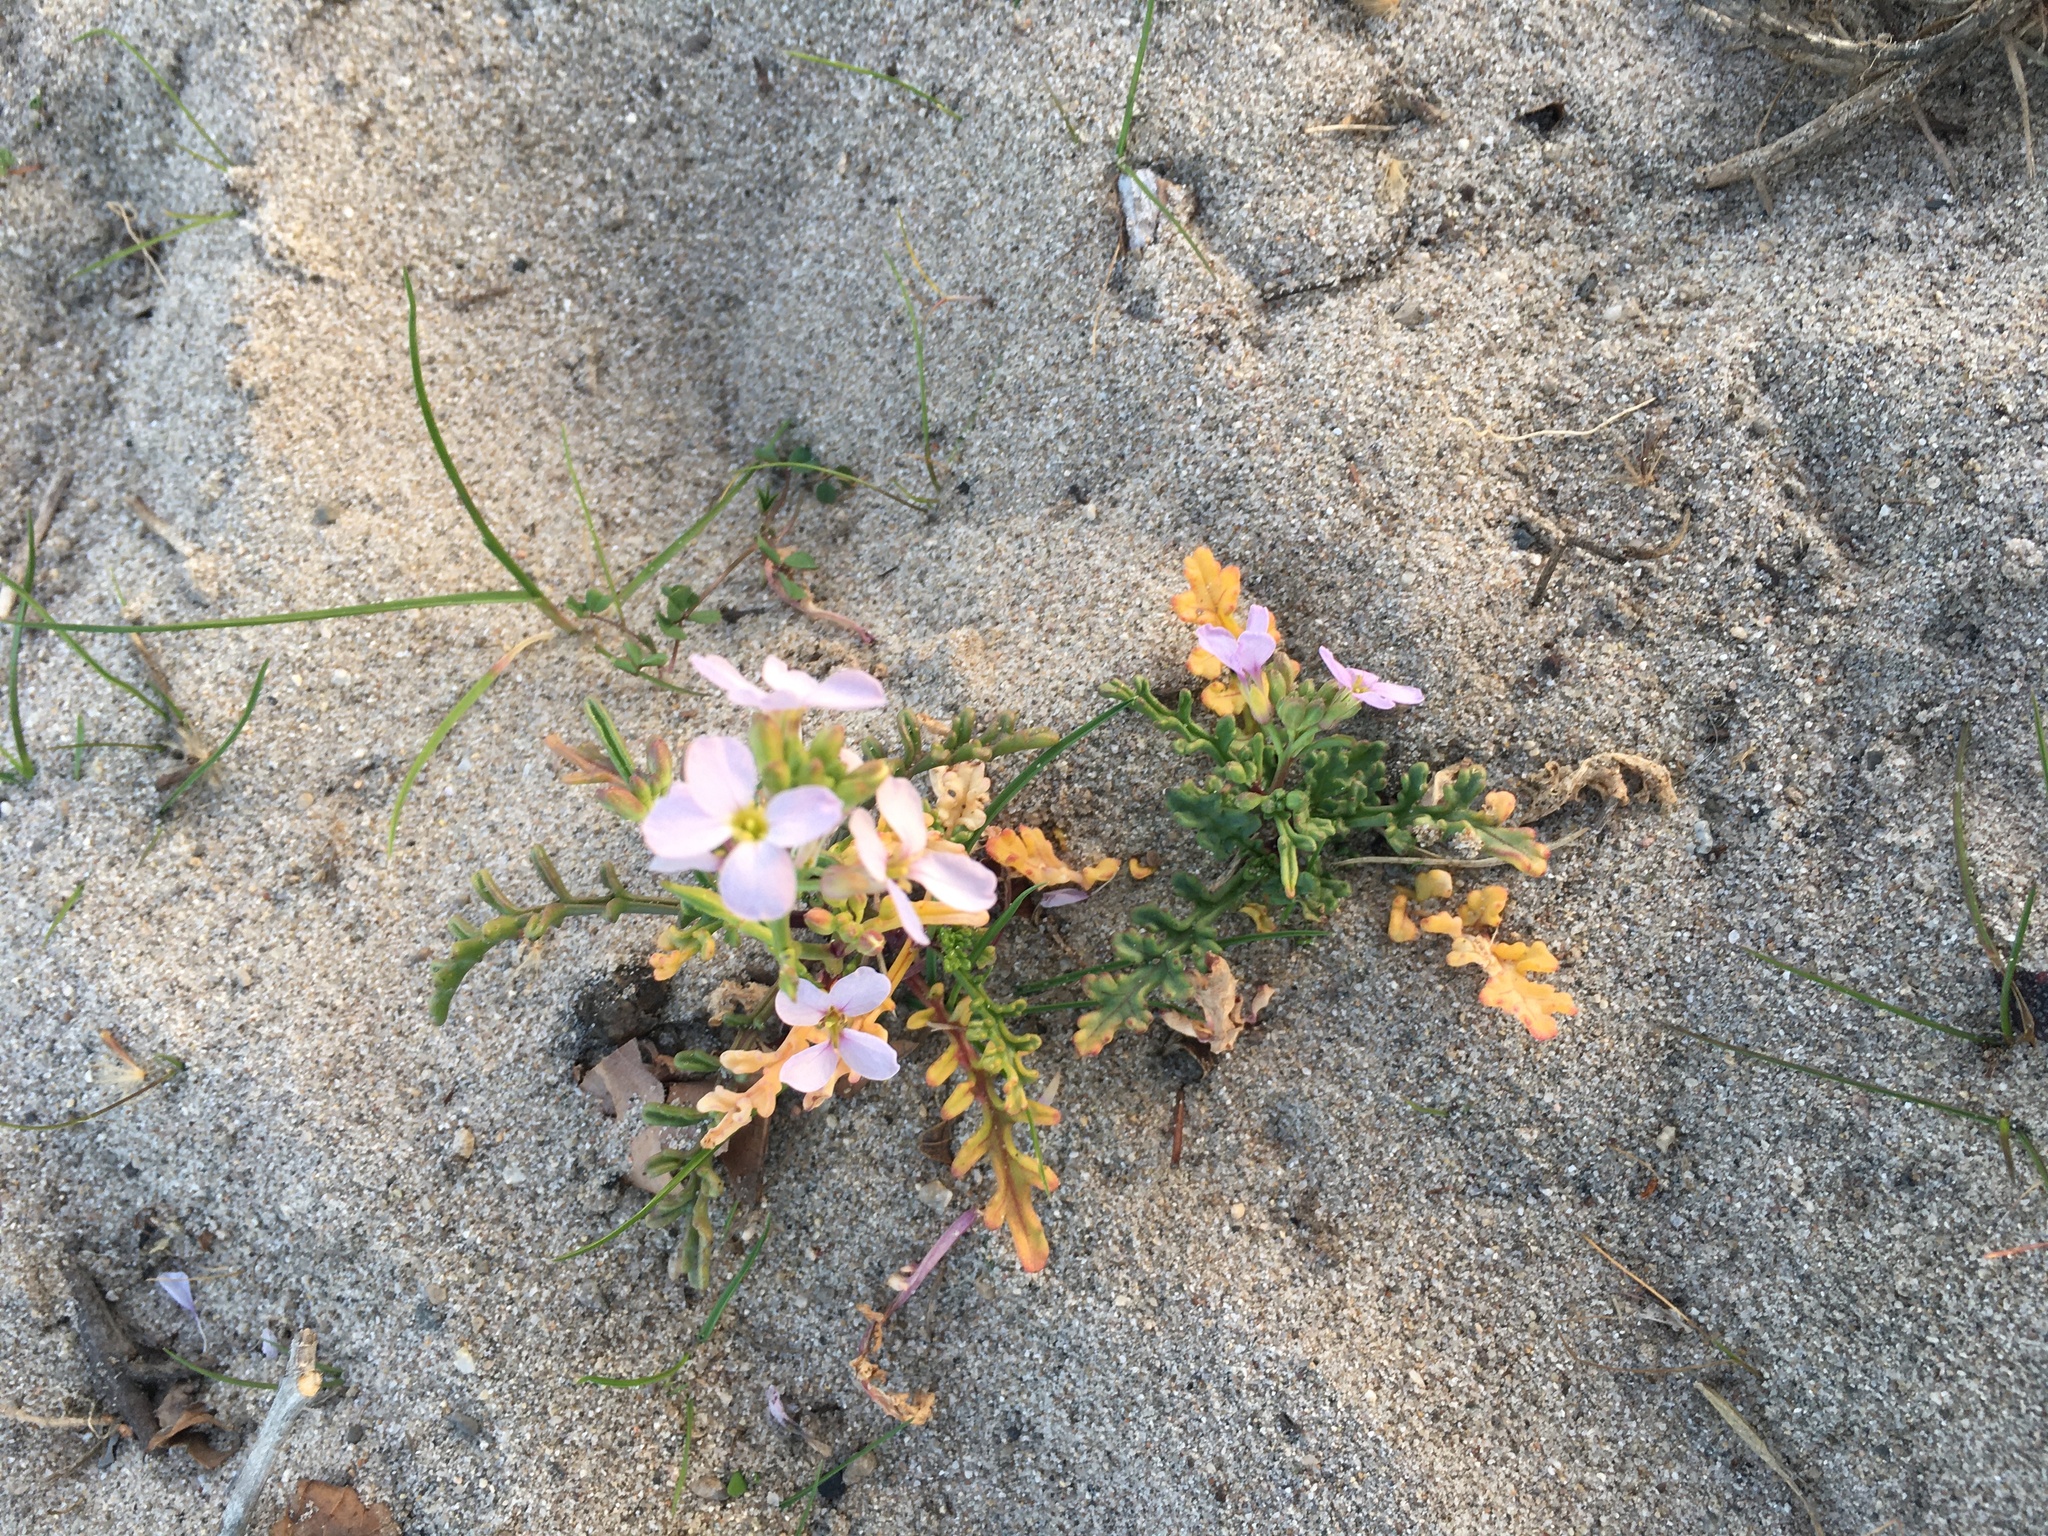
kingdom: Plantae
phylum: Tracheophyta
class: Magnoliopsida
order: Brassicales
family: Brassicaceae
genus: Cakile
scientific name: Cakile maritima
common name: Sea rocket
